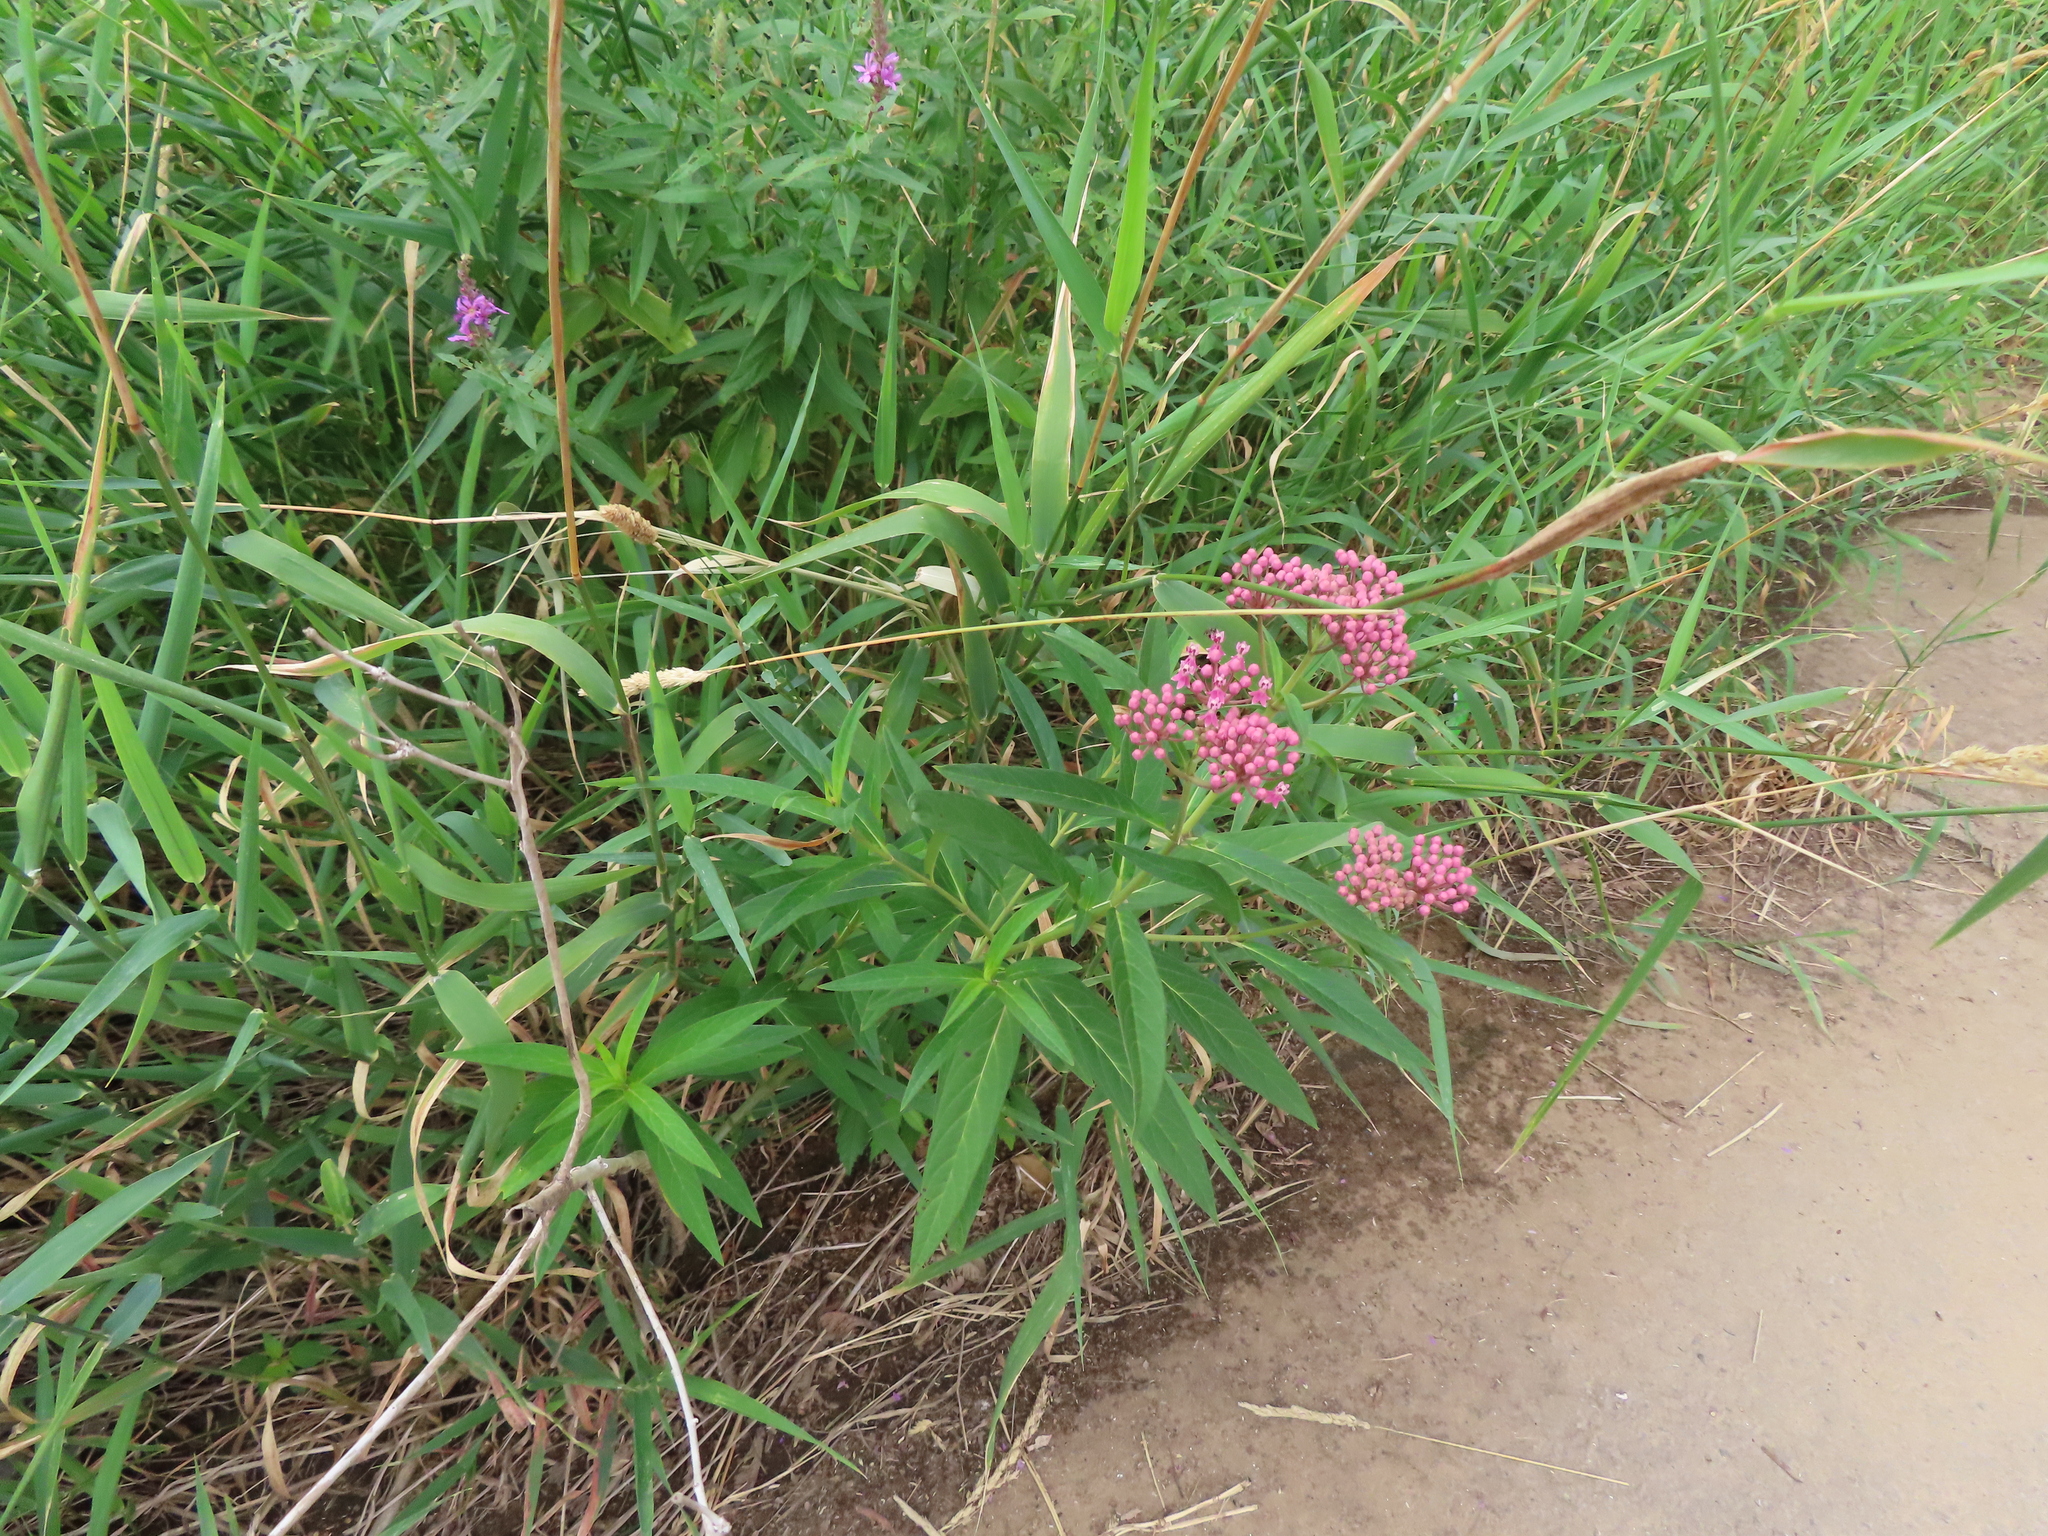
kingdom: Plantae
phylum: Tracheophyta
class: Magnoliopsida
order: Gentianales
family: Apocynaceae
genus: Asclepias
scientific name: Asclepias incarnata
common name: Swamp milkweed
